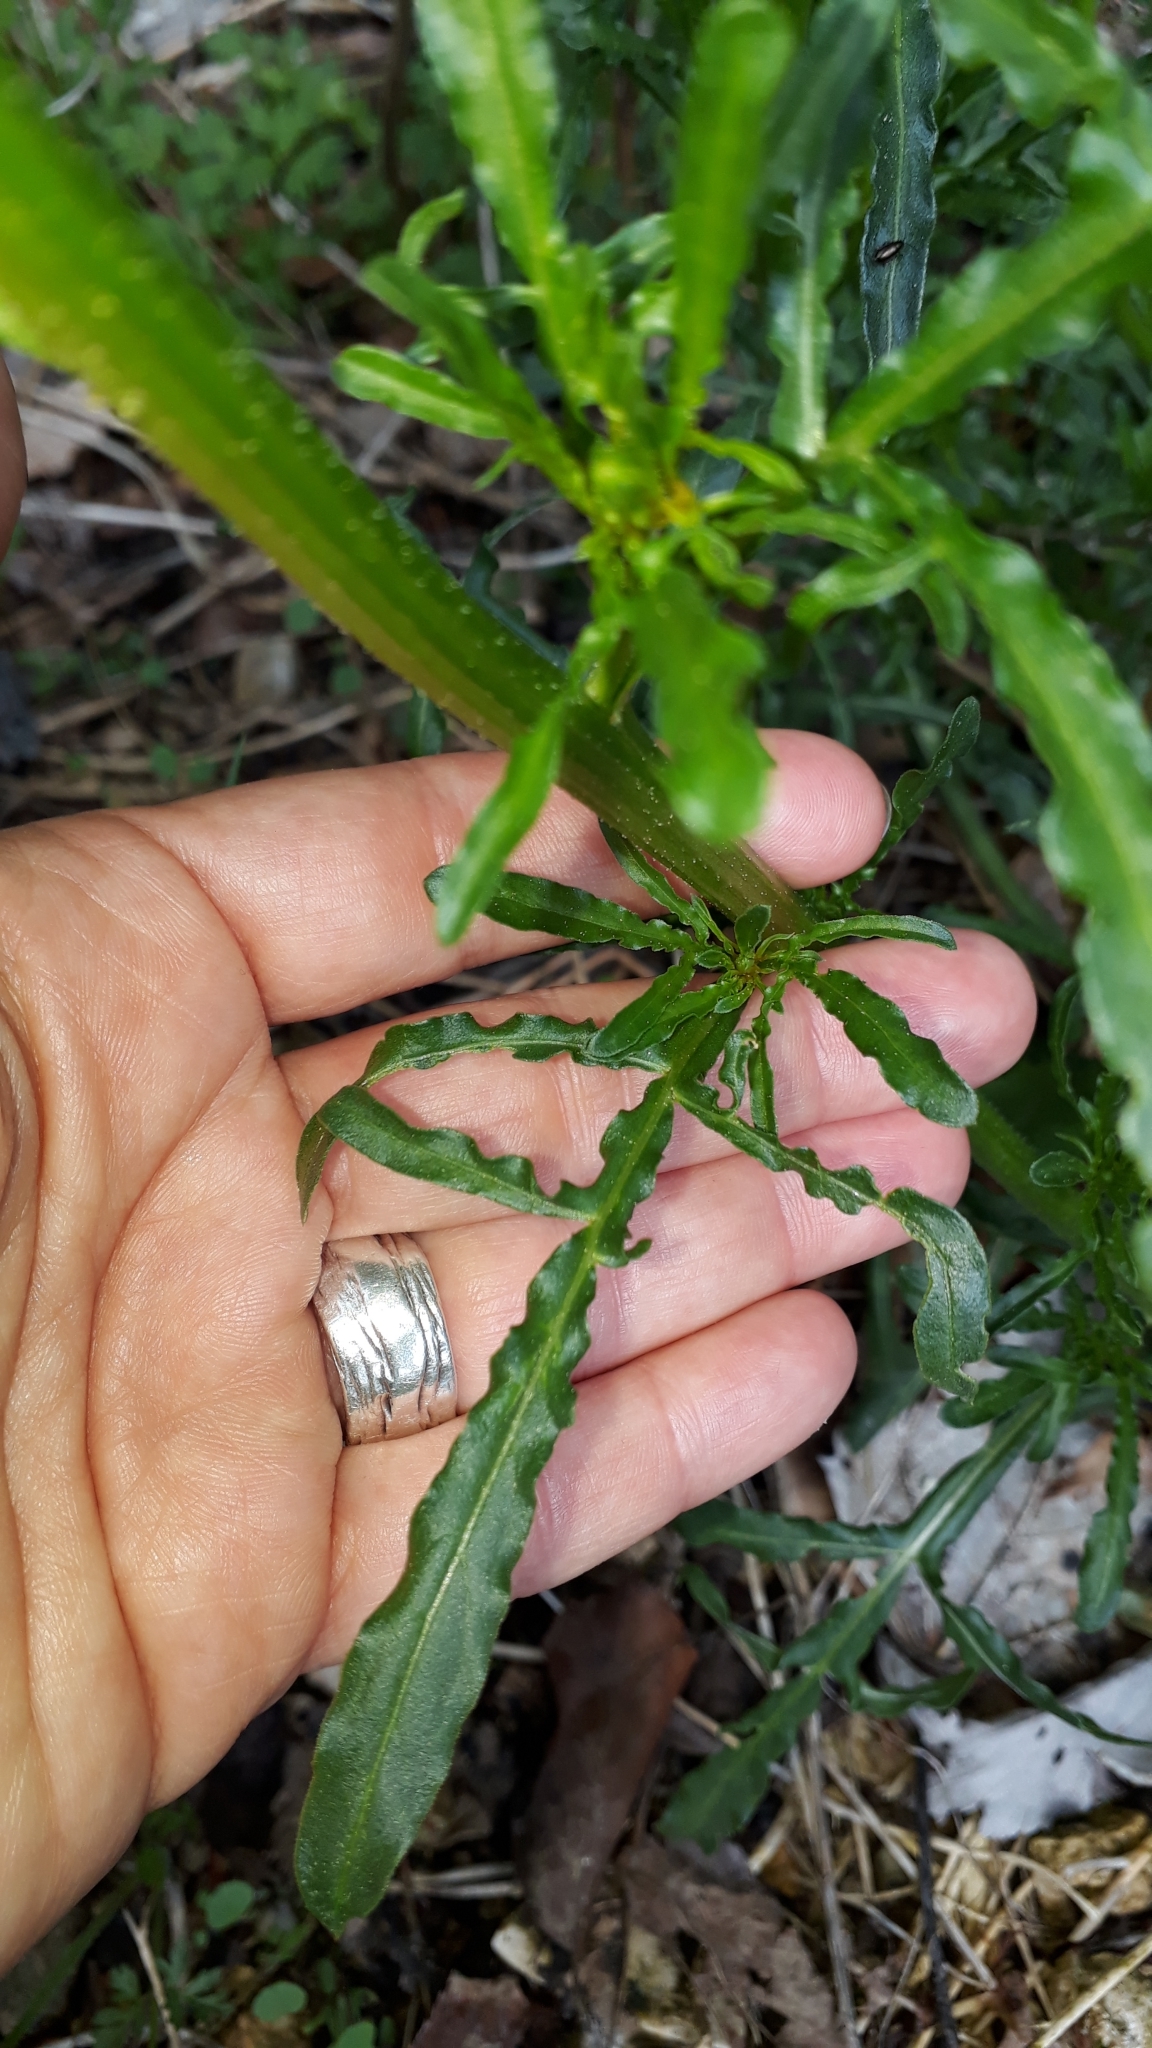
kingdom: Plantae
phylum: Tracheophyta
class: Magnoliopsida
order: Brassicales
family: Resedaceae
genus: Reseda
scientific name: Reseda lutea
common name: Wild mignonette
